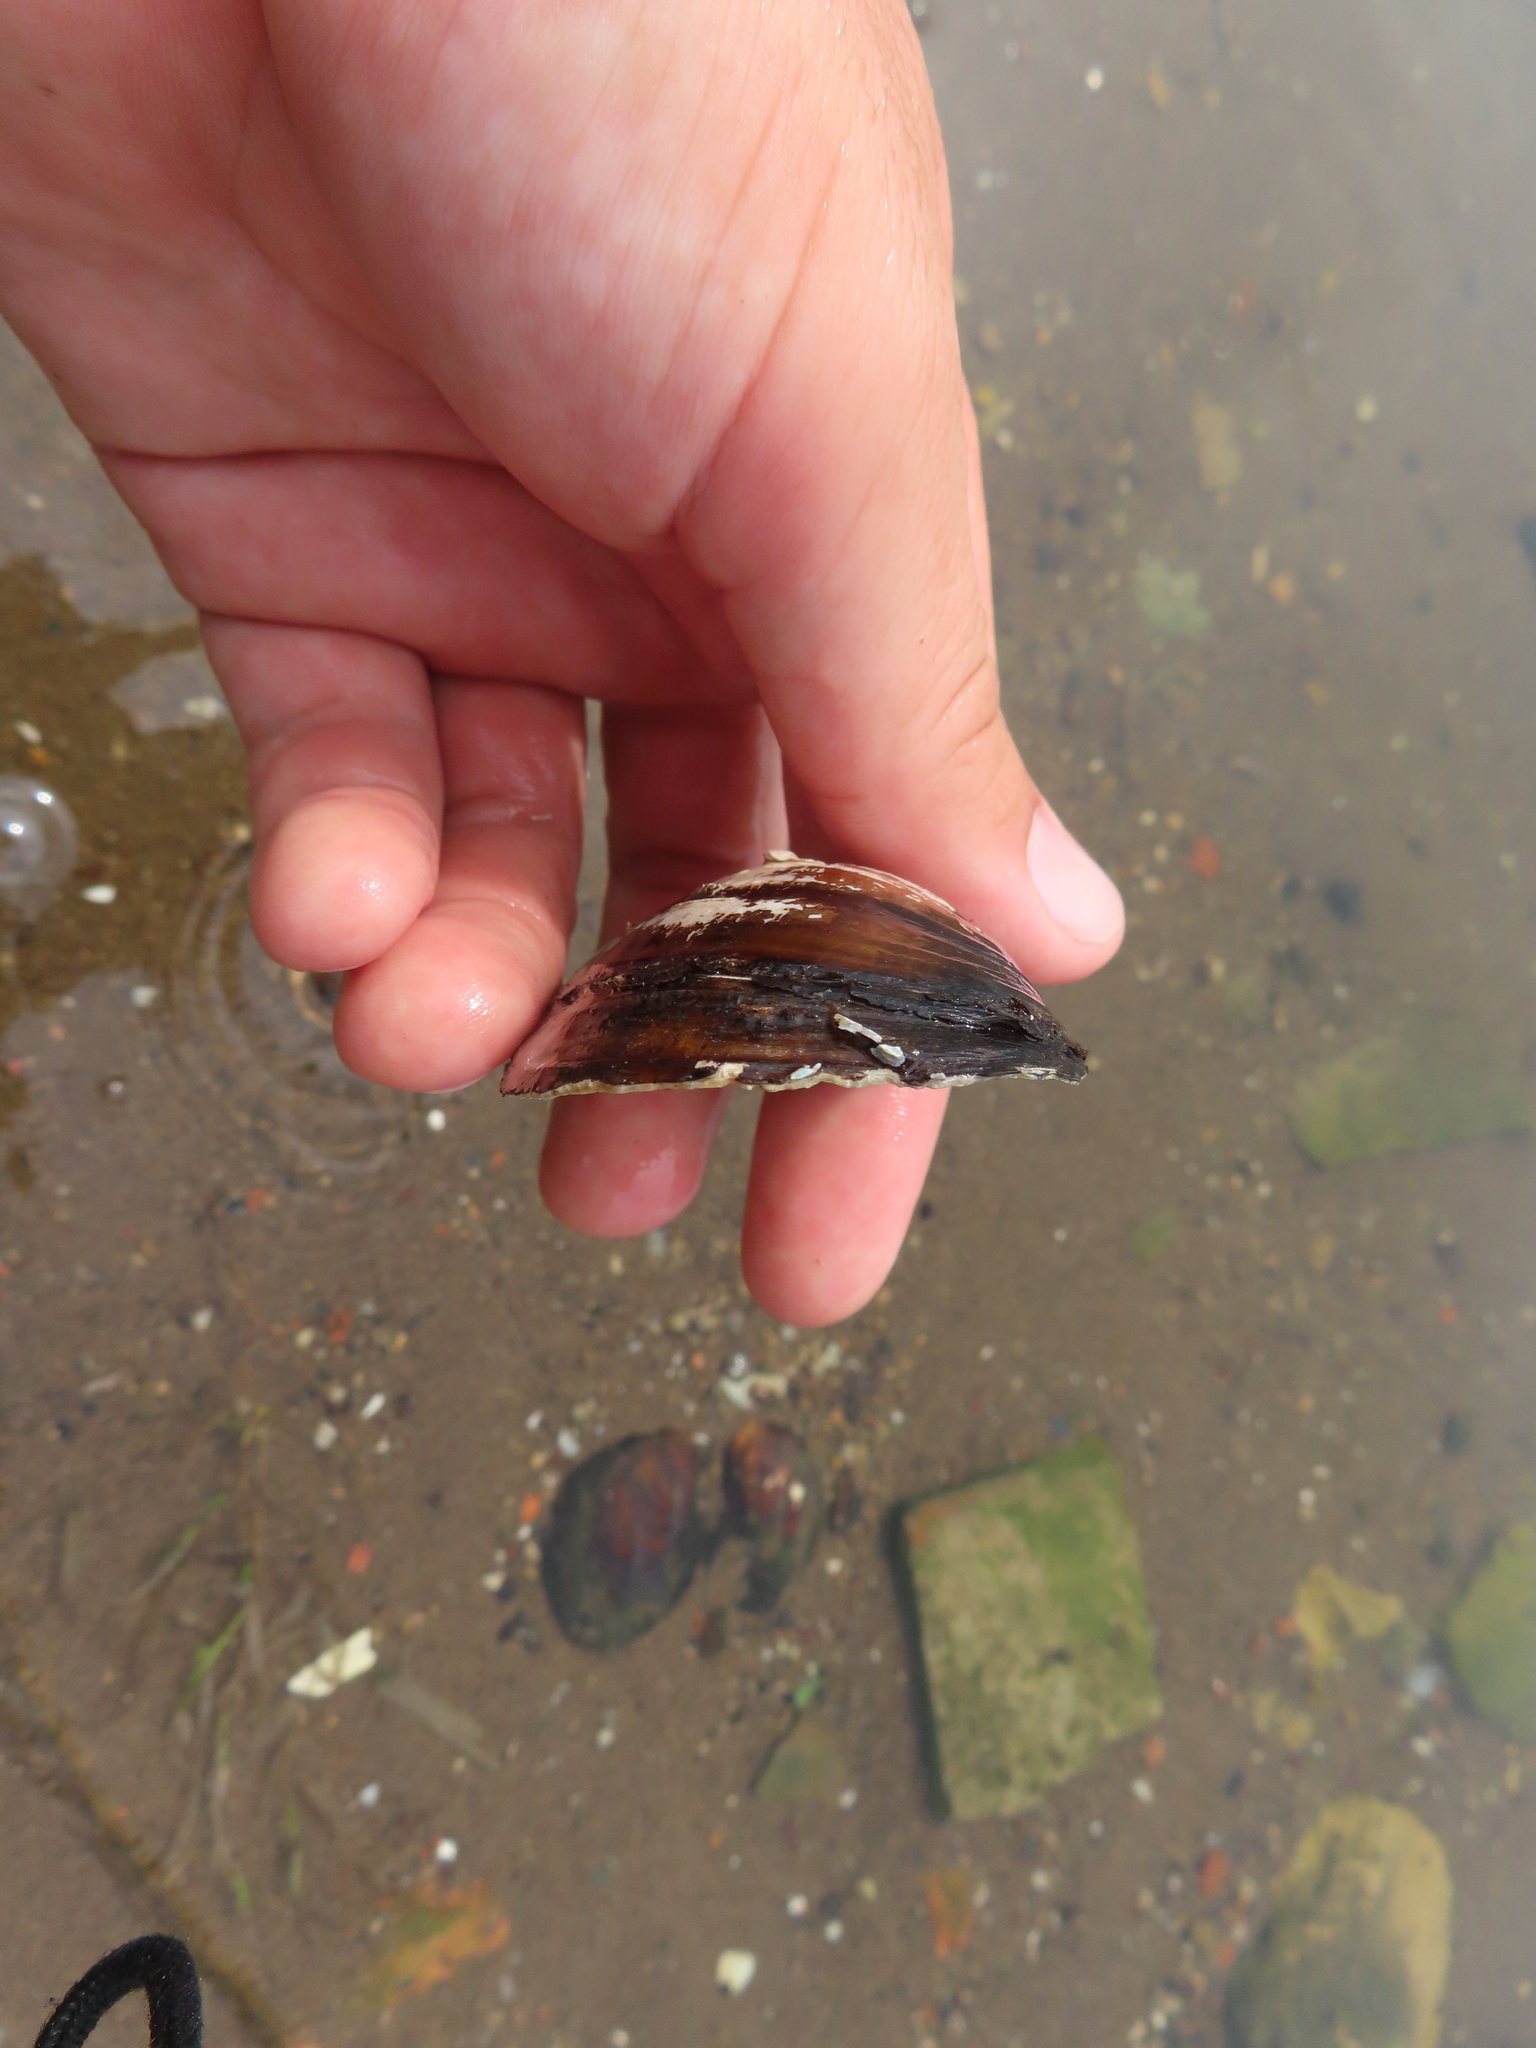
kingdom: Animalia
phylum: Mollusca
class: Bivalvia
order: Unionida
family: Unionidae
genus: Lampsilis
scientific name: Lampsilis siliquoidea
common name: Fatmucket
